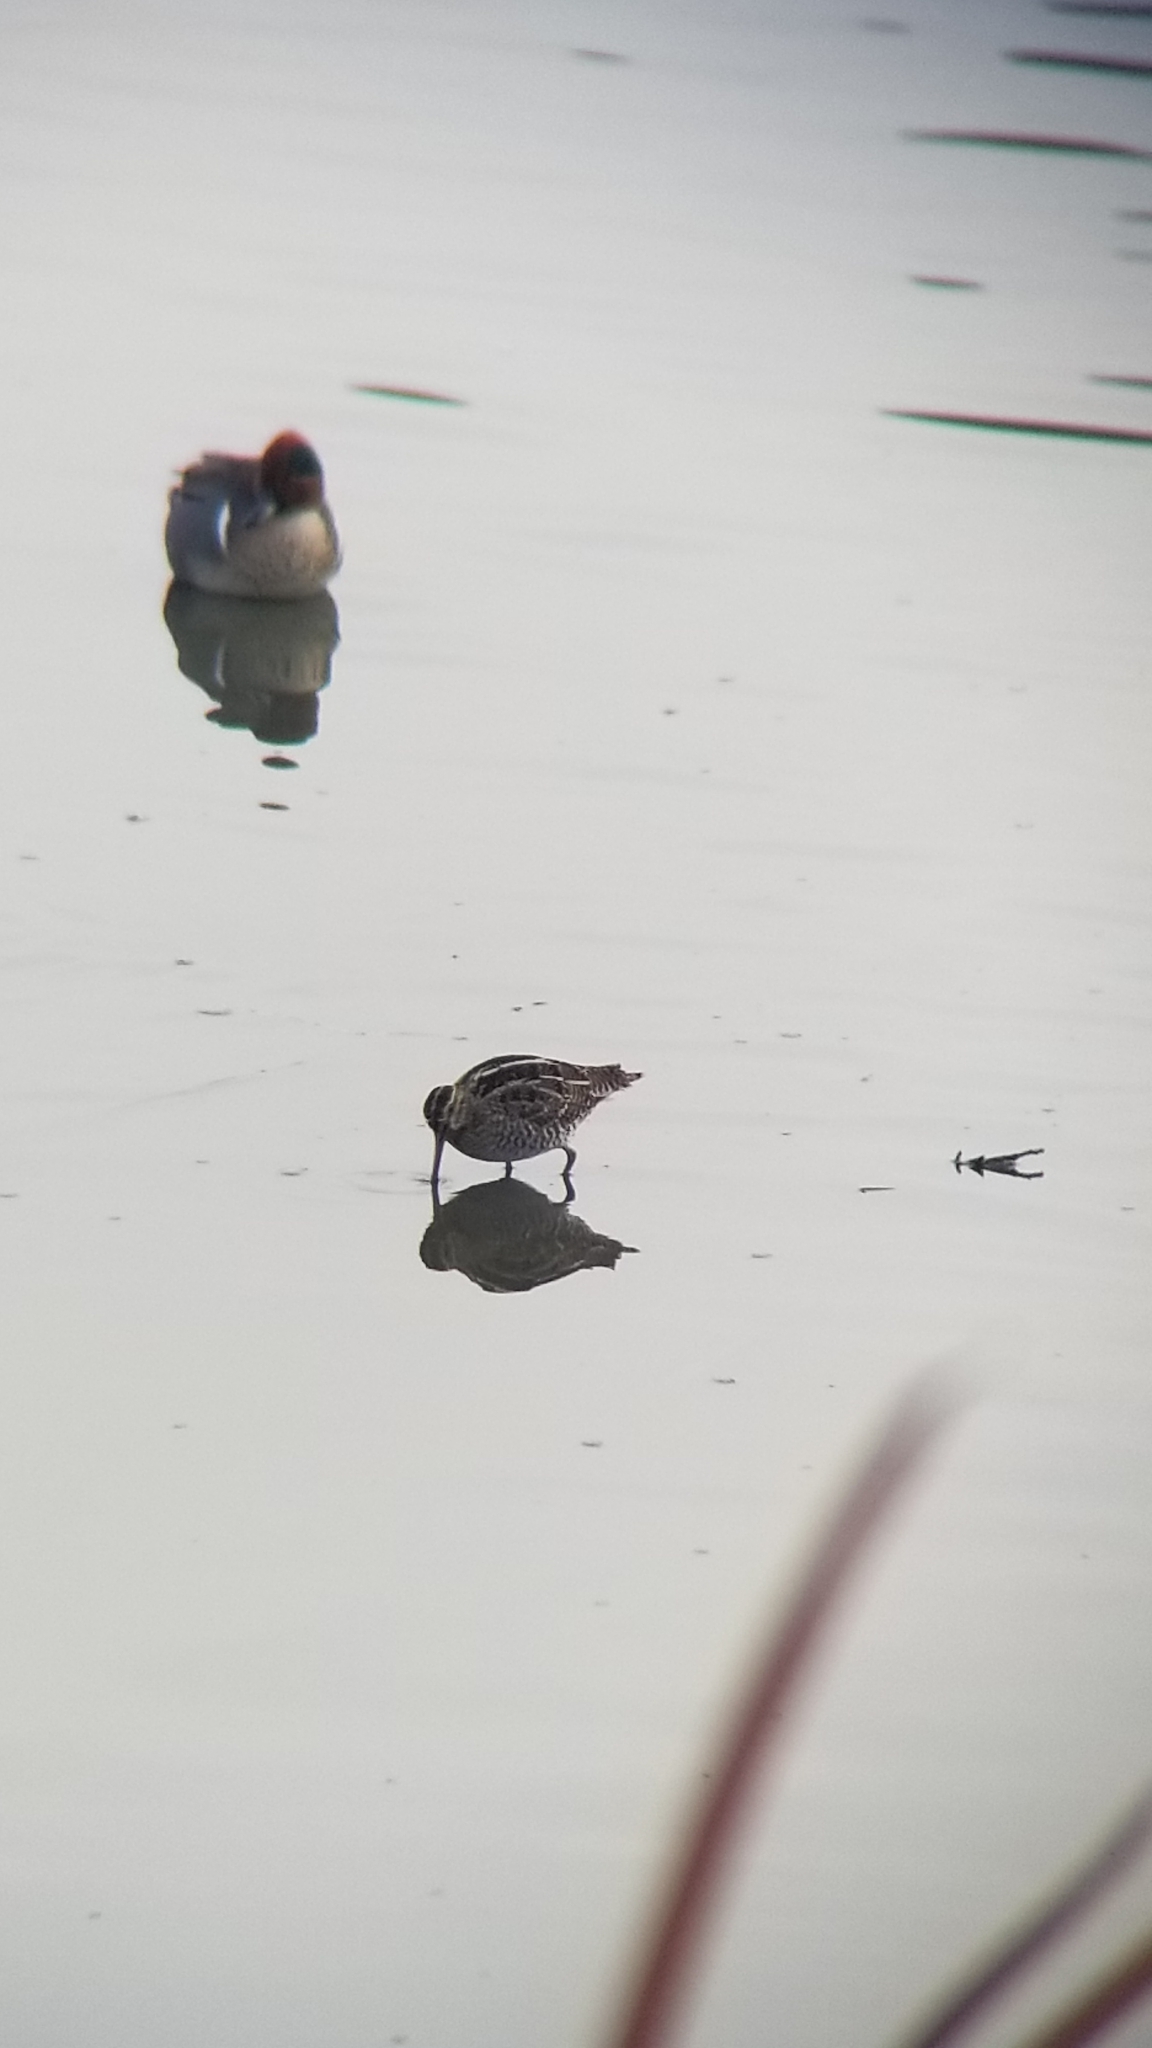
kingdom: Animalia
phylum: Chordata
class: Aves
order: Charadriiformes
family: Scolopacidae
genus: Gallinago
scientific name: Gallinago delicata
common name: Wilson's snipe
